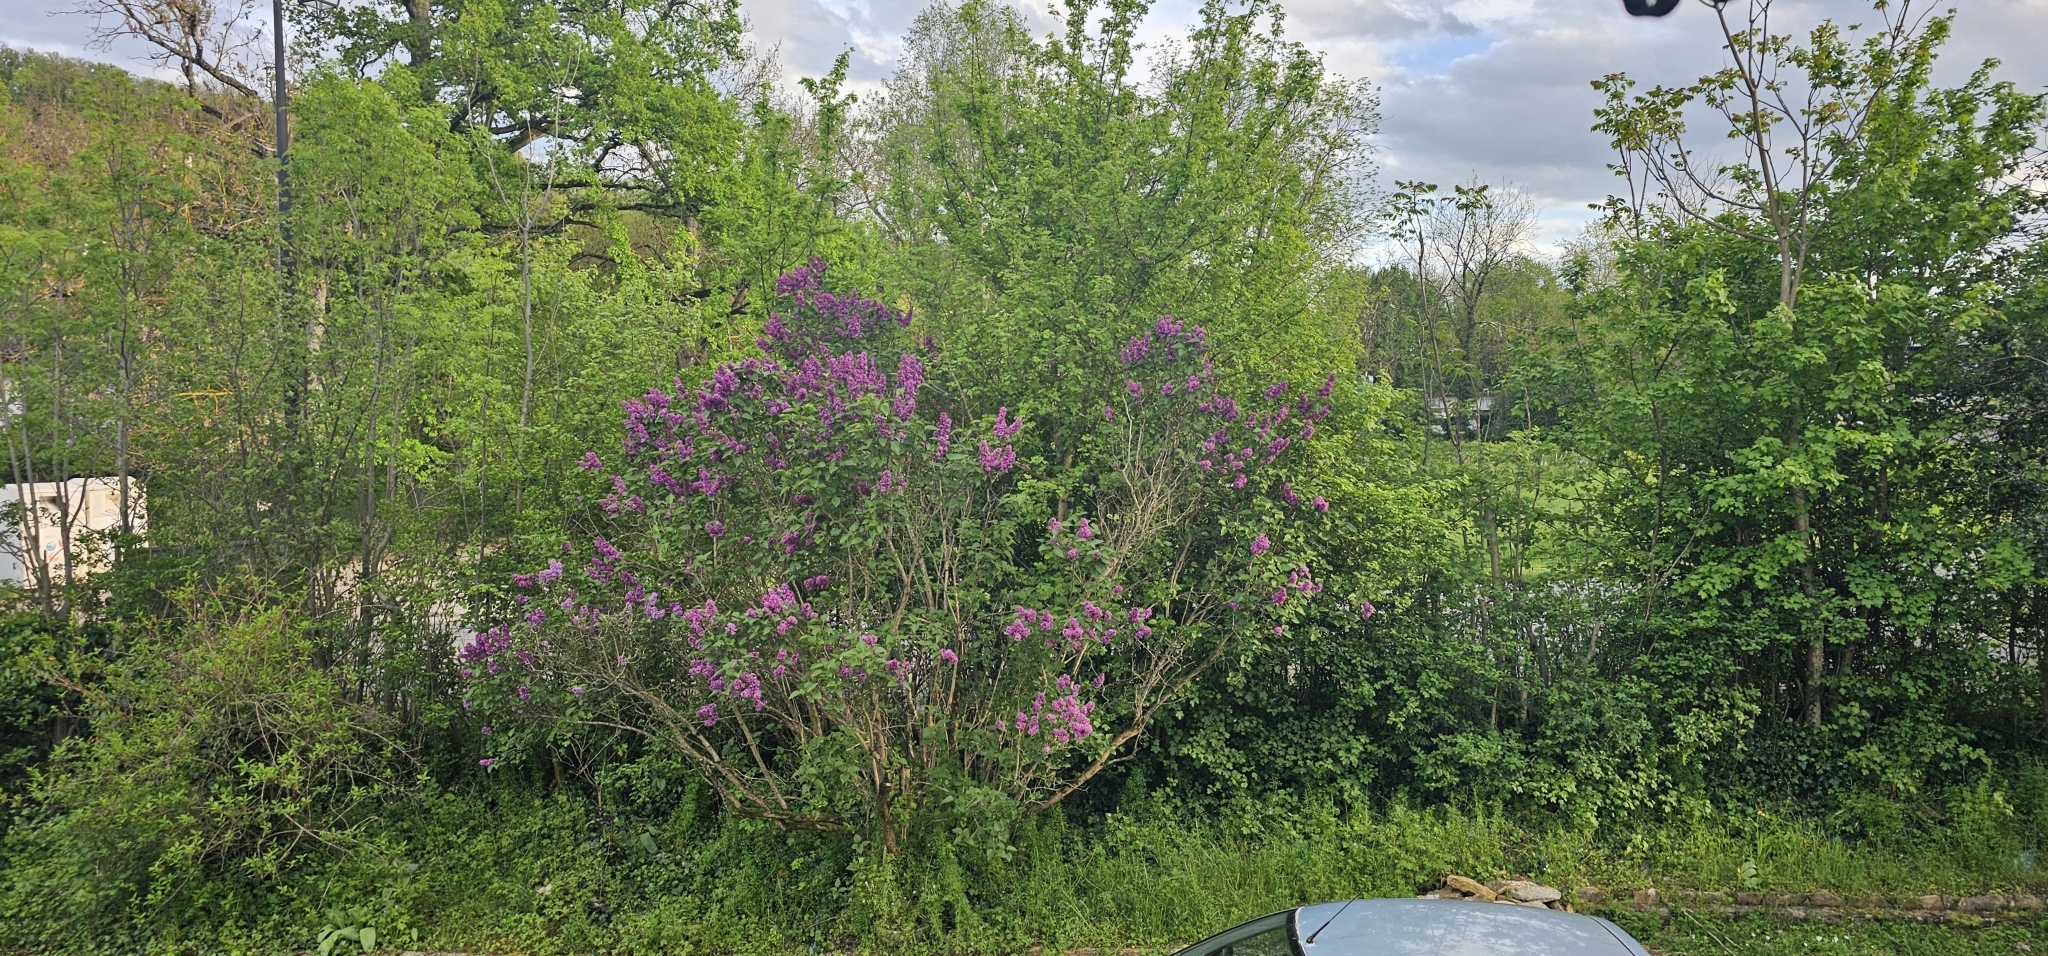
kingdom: Plantae
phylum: Tracheophyta
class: Magnoliopsida
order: Lamiales
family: Oleaceae
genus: Syringa
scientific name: Syringa vulgaris
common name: Common lilac
